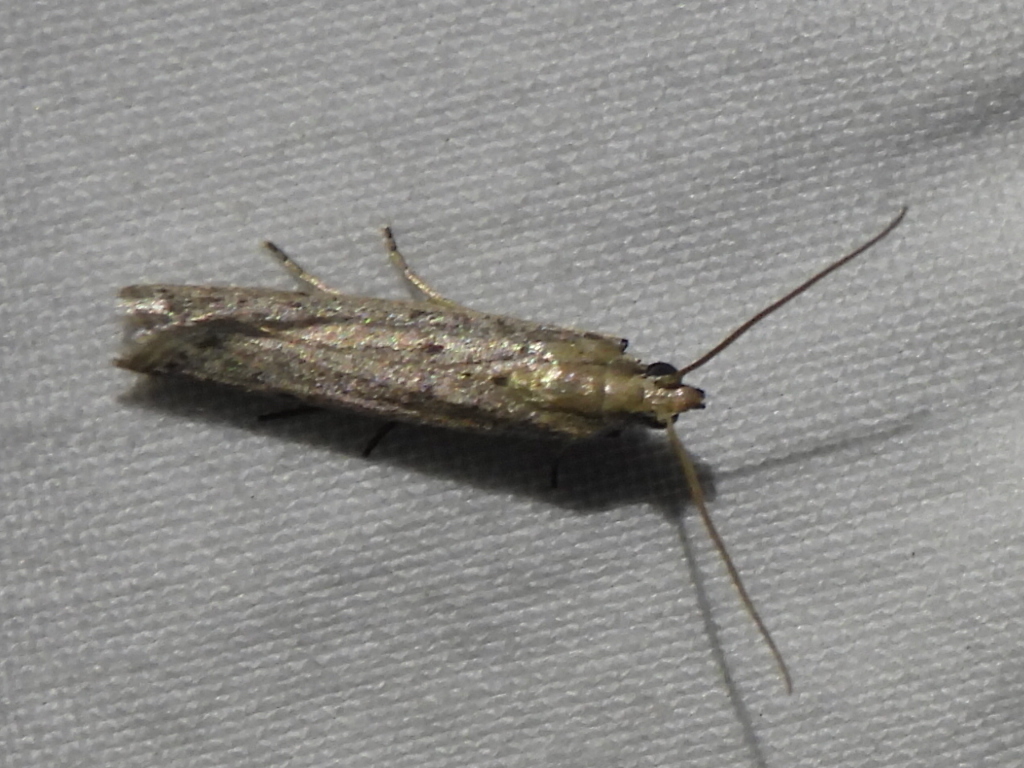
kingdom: Animalia
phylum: Arthropoda
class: Insecta
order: Lepidoptera
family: Pyralidae
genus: Homoeosoma
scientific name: Homoeosoma electella
